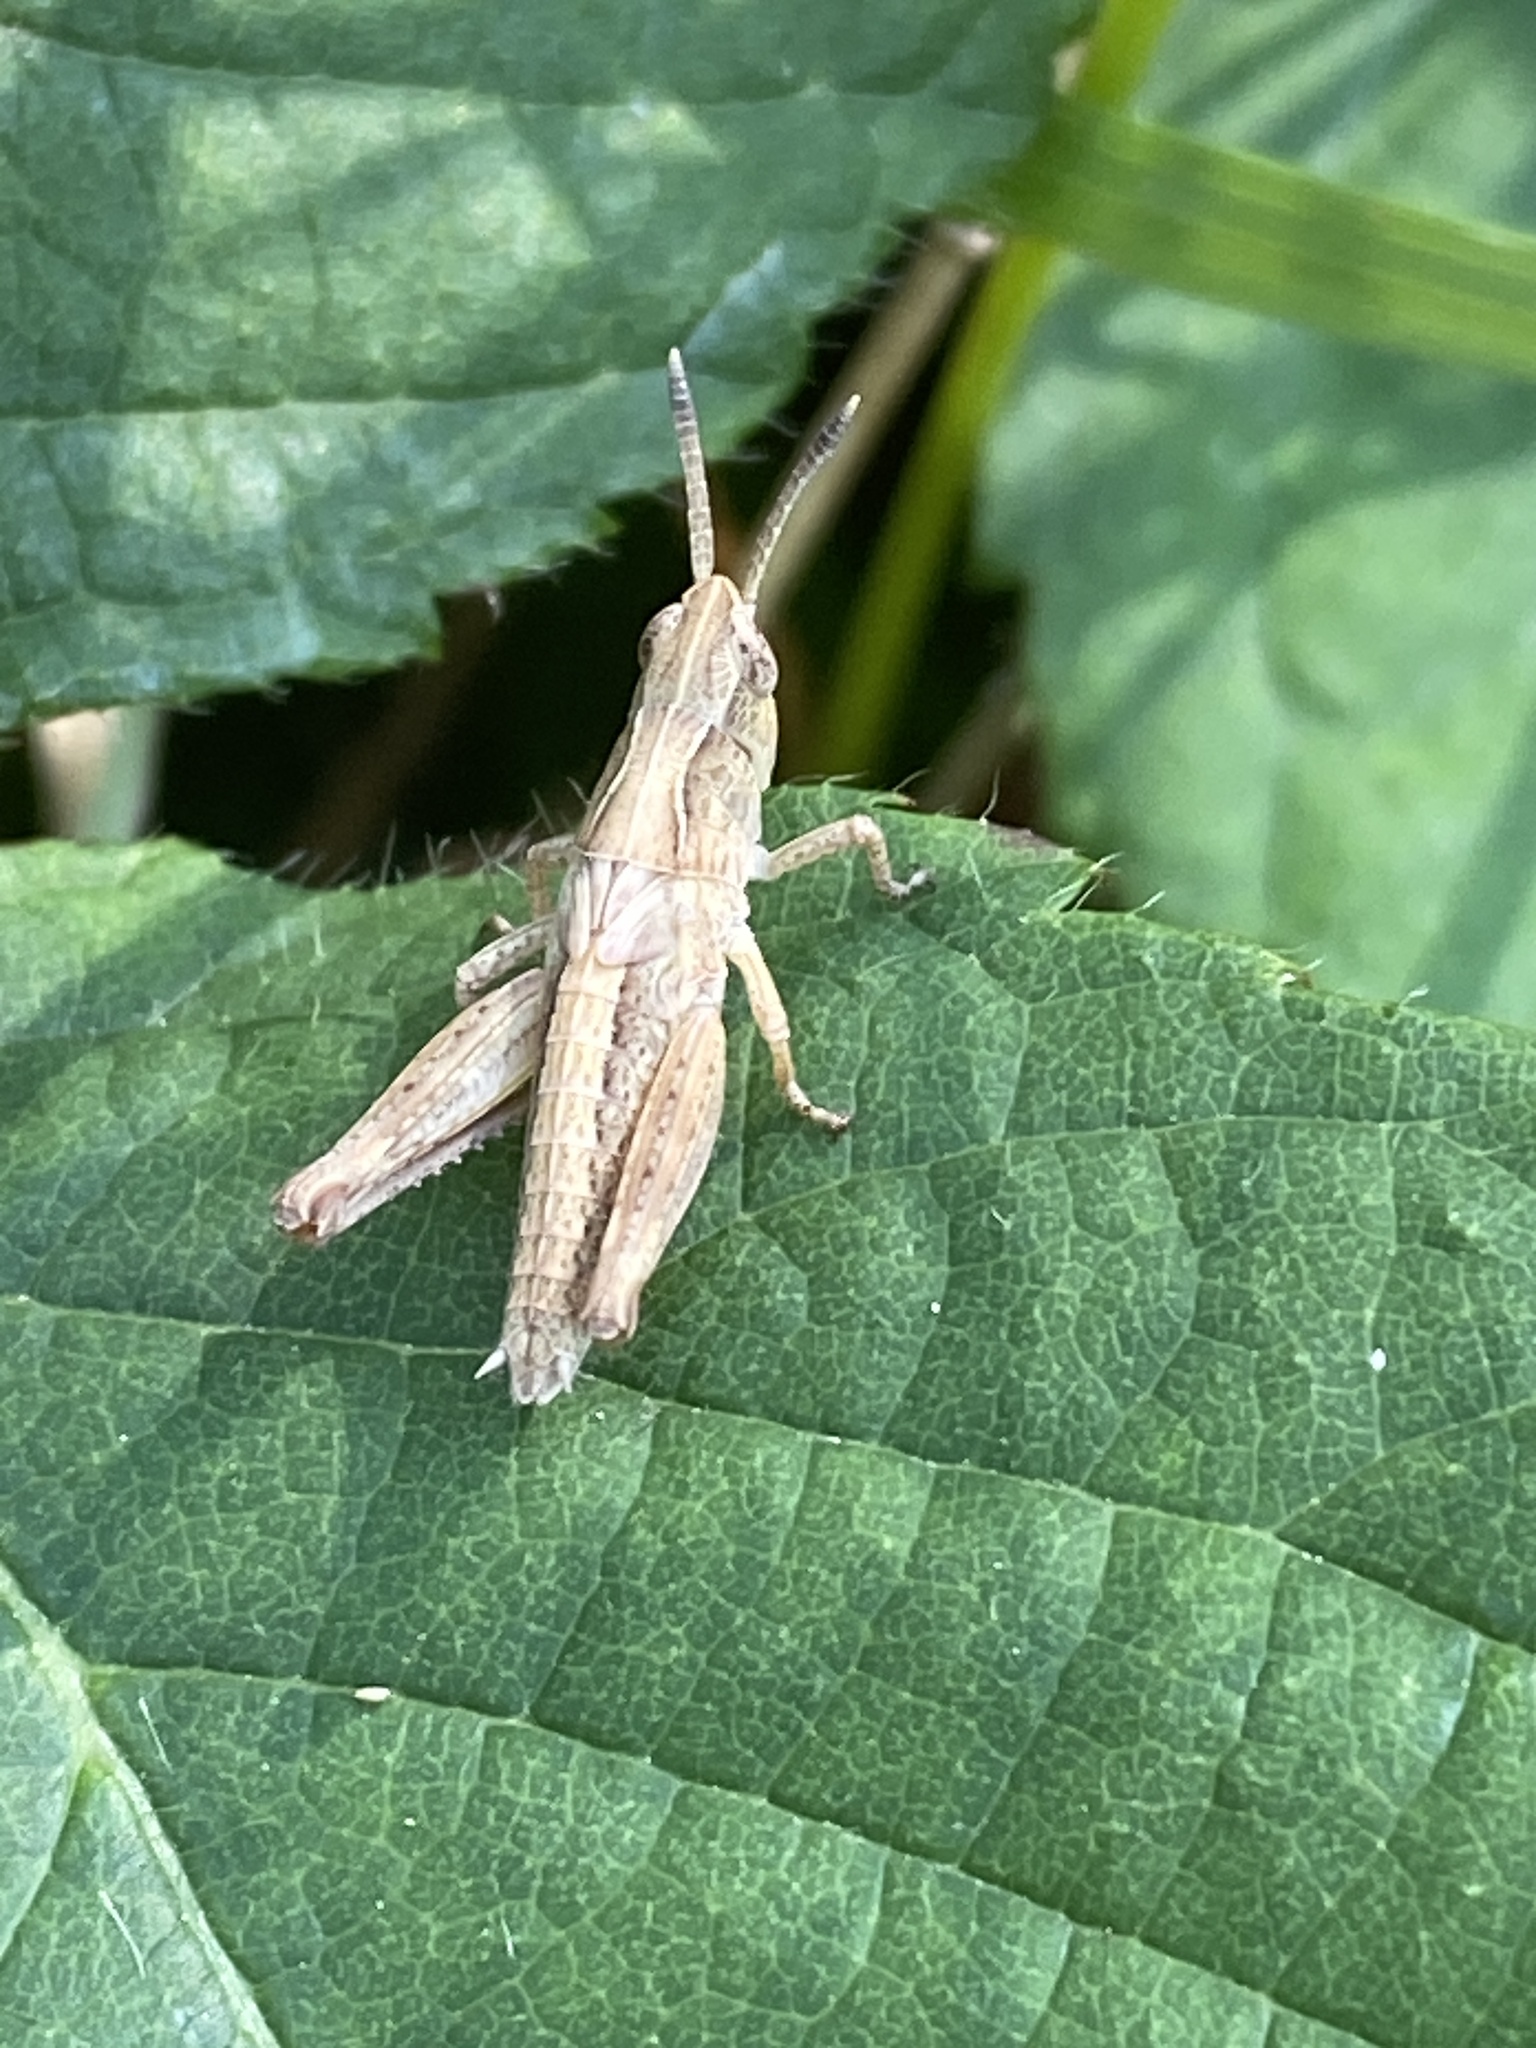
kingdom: Animalia
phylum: Arthropoda
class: Insecta
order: Orthoptera
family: Acrididae
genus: Gomphocerippus
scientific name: Gomphocerippus rufus
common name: Rufous grasshopper
